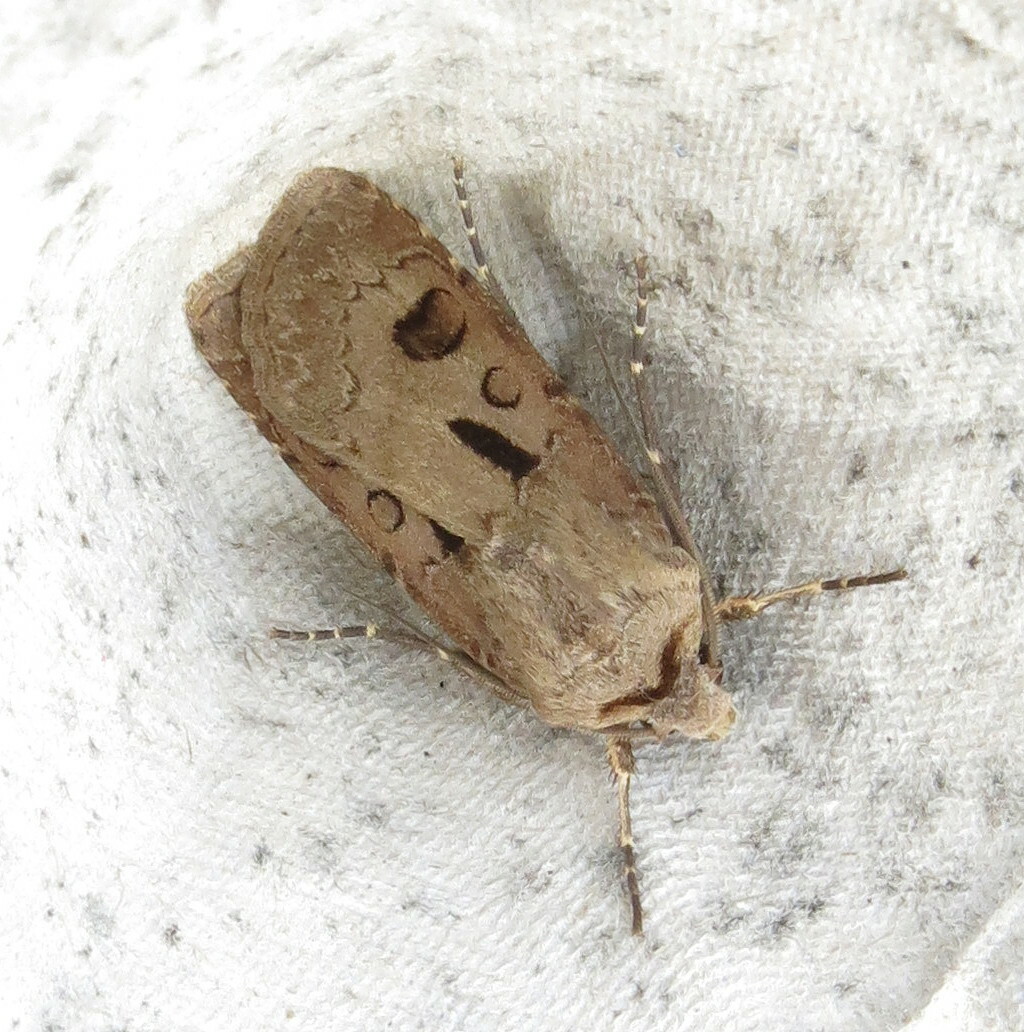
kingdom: Animalia
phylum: Arthropoda
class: Insecta
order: Lepidoptera
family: Noctuidae
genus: Agrotis
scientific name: Agrotis exclamationis
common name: Heart and dart
